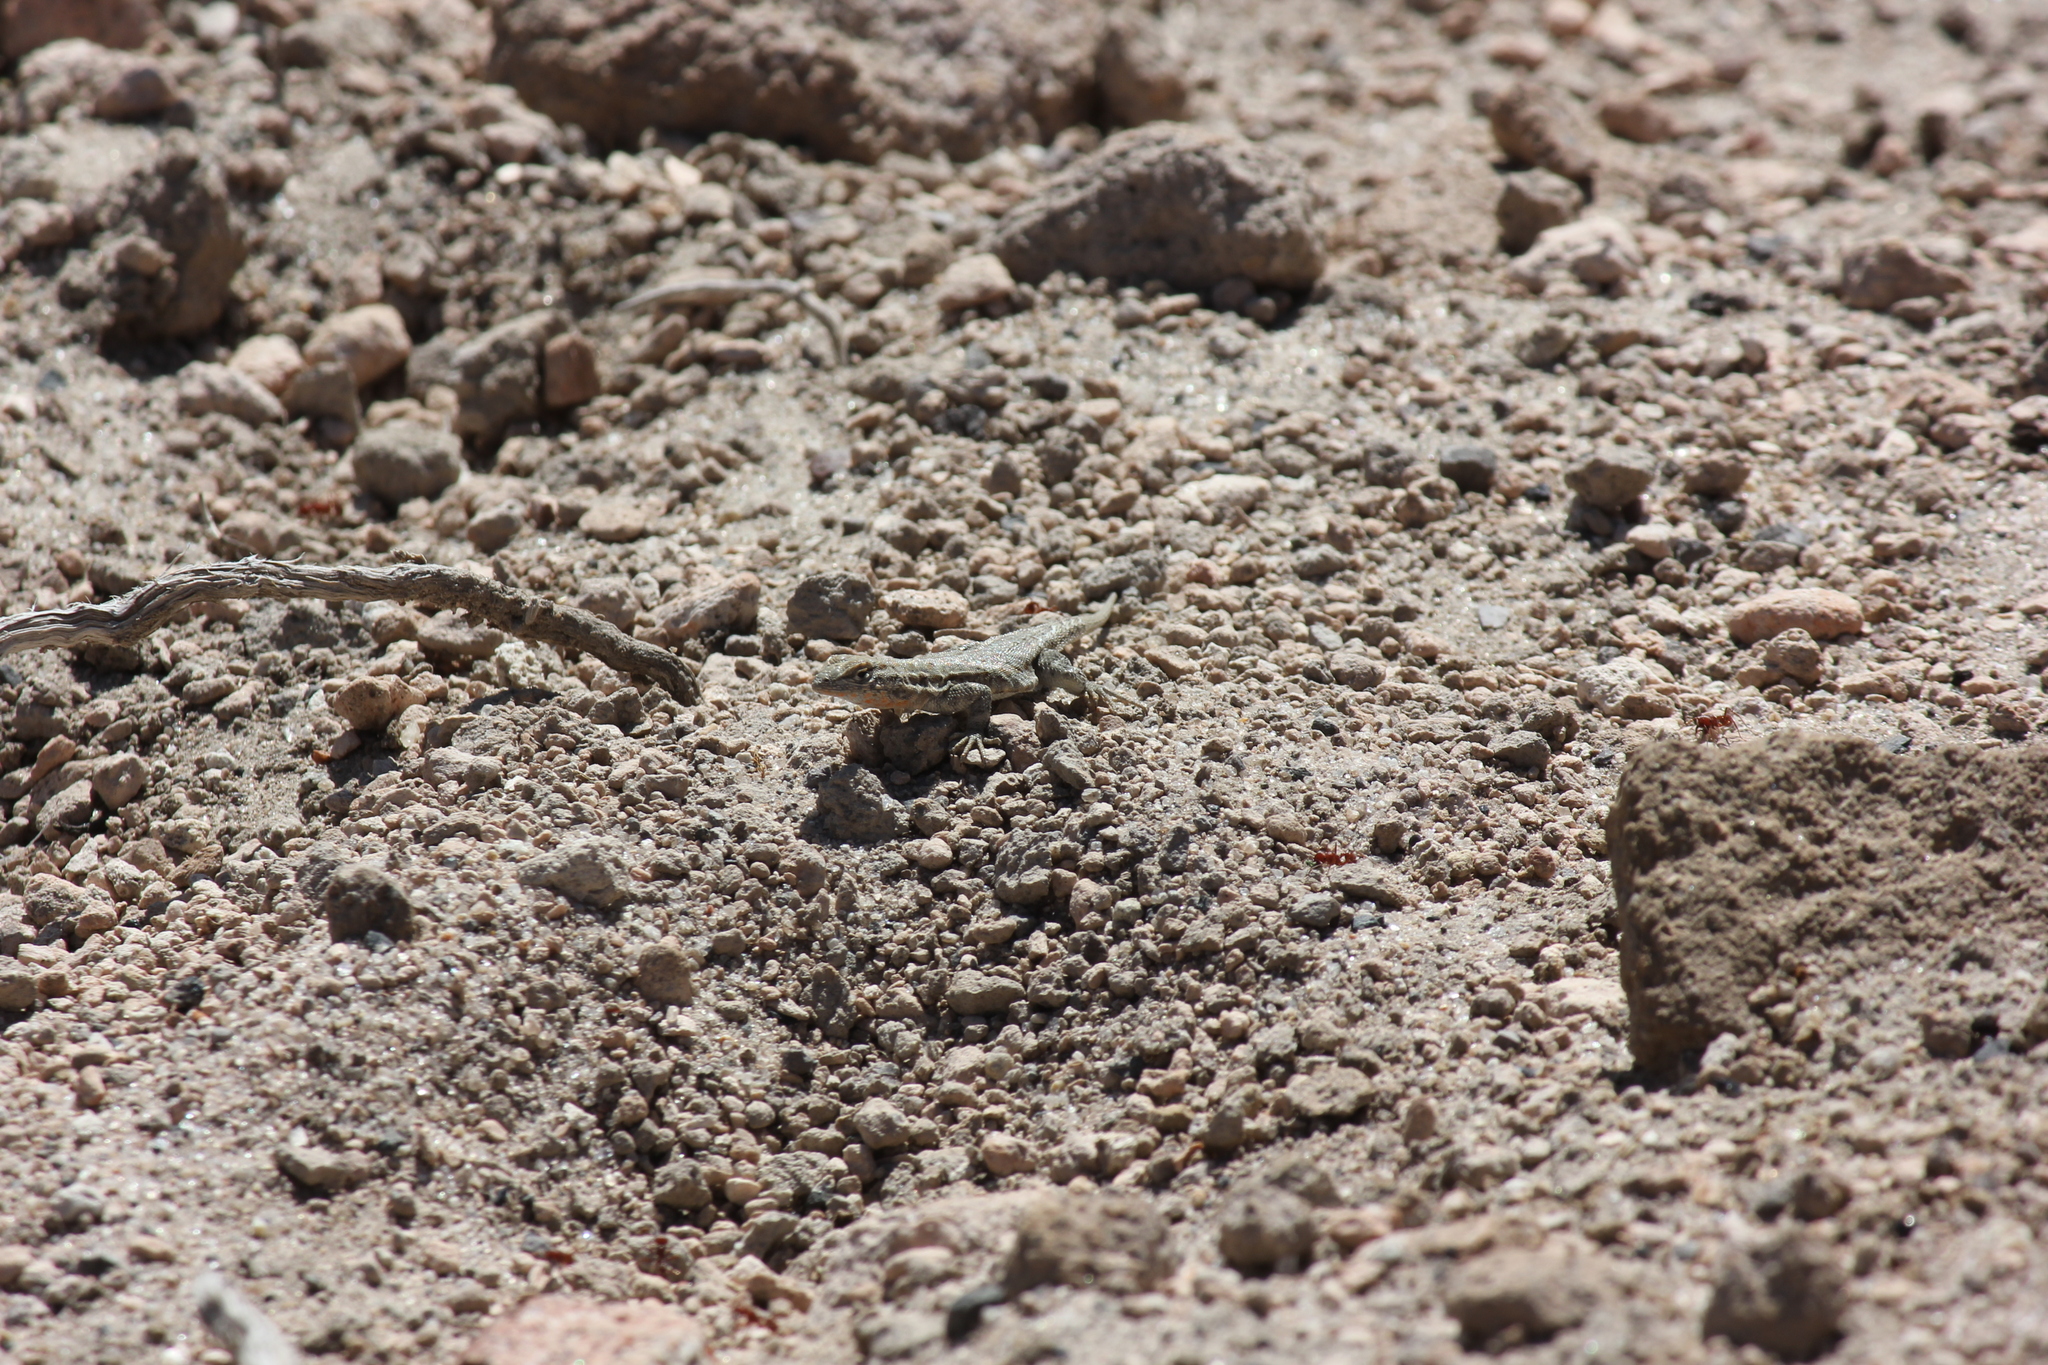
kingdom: Animalia
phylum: Chordata
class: Squamata
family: Phrynosomatidae
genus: Uta
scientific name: Uta stansburiana
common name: Side-blotched lizard
